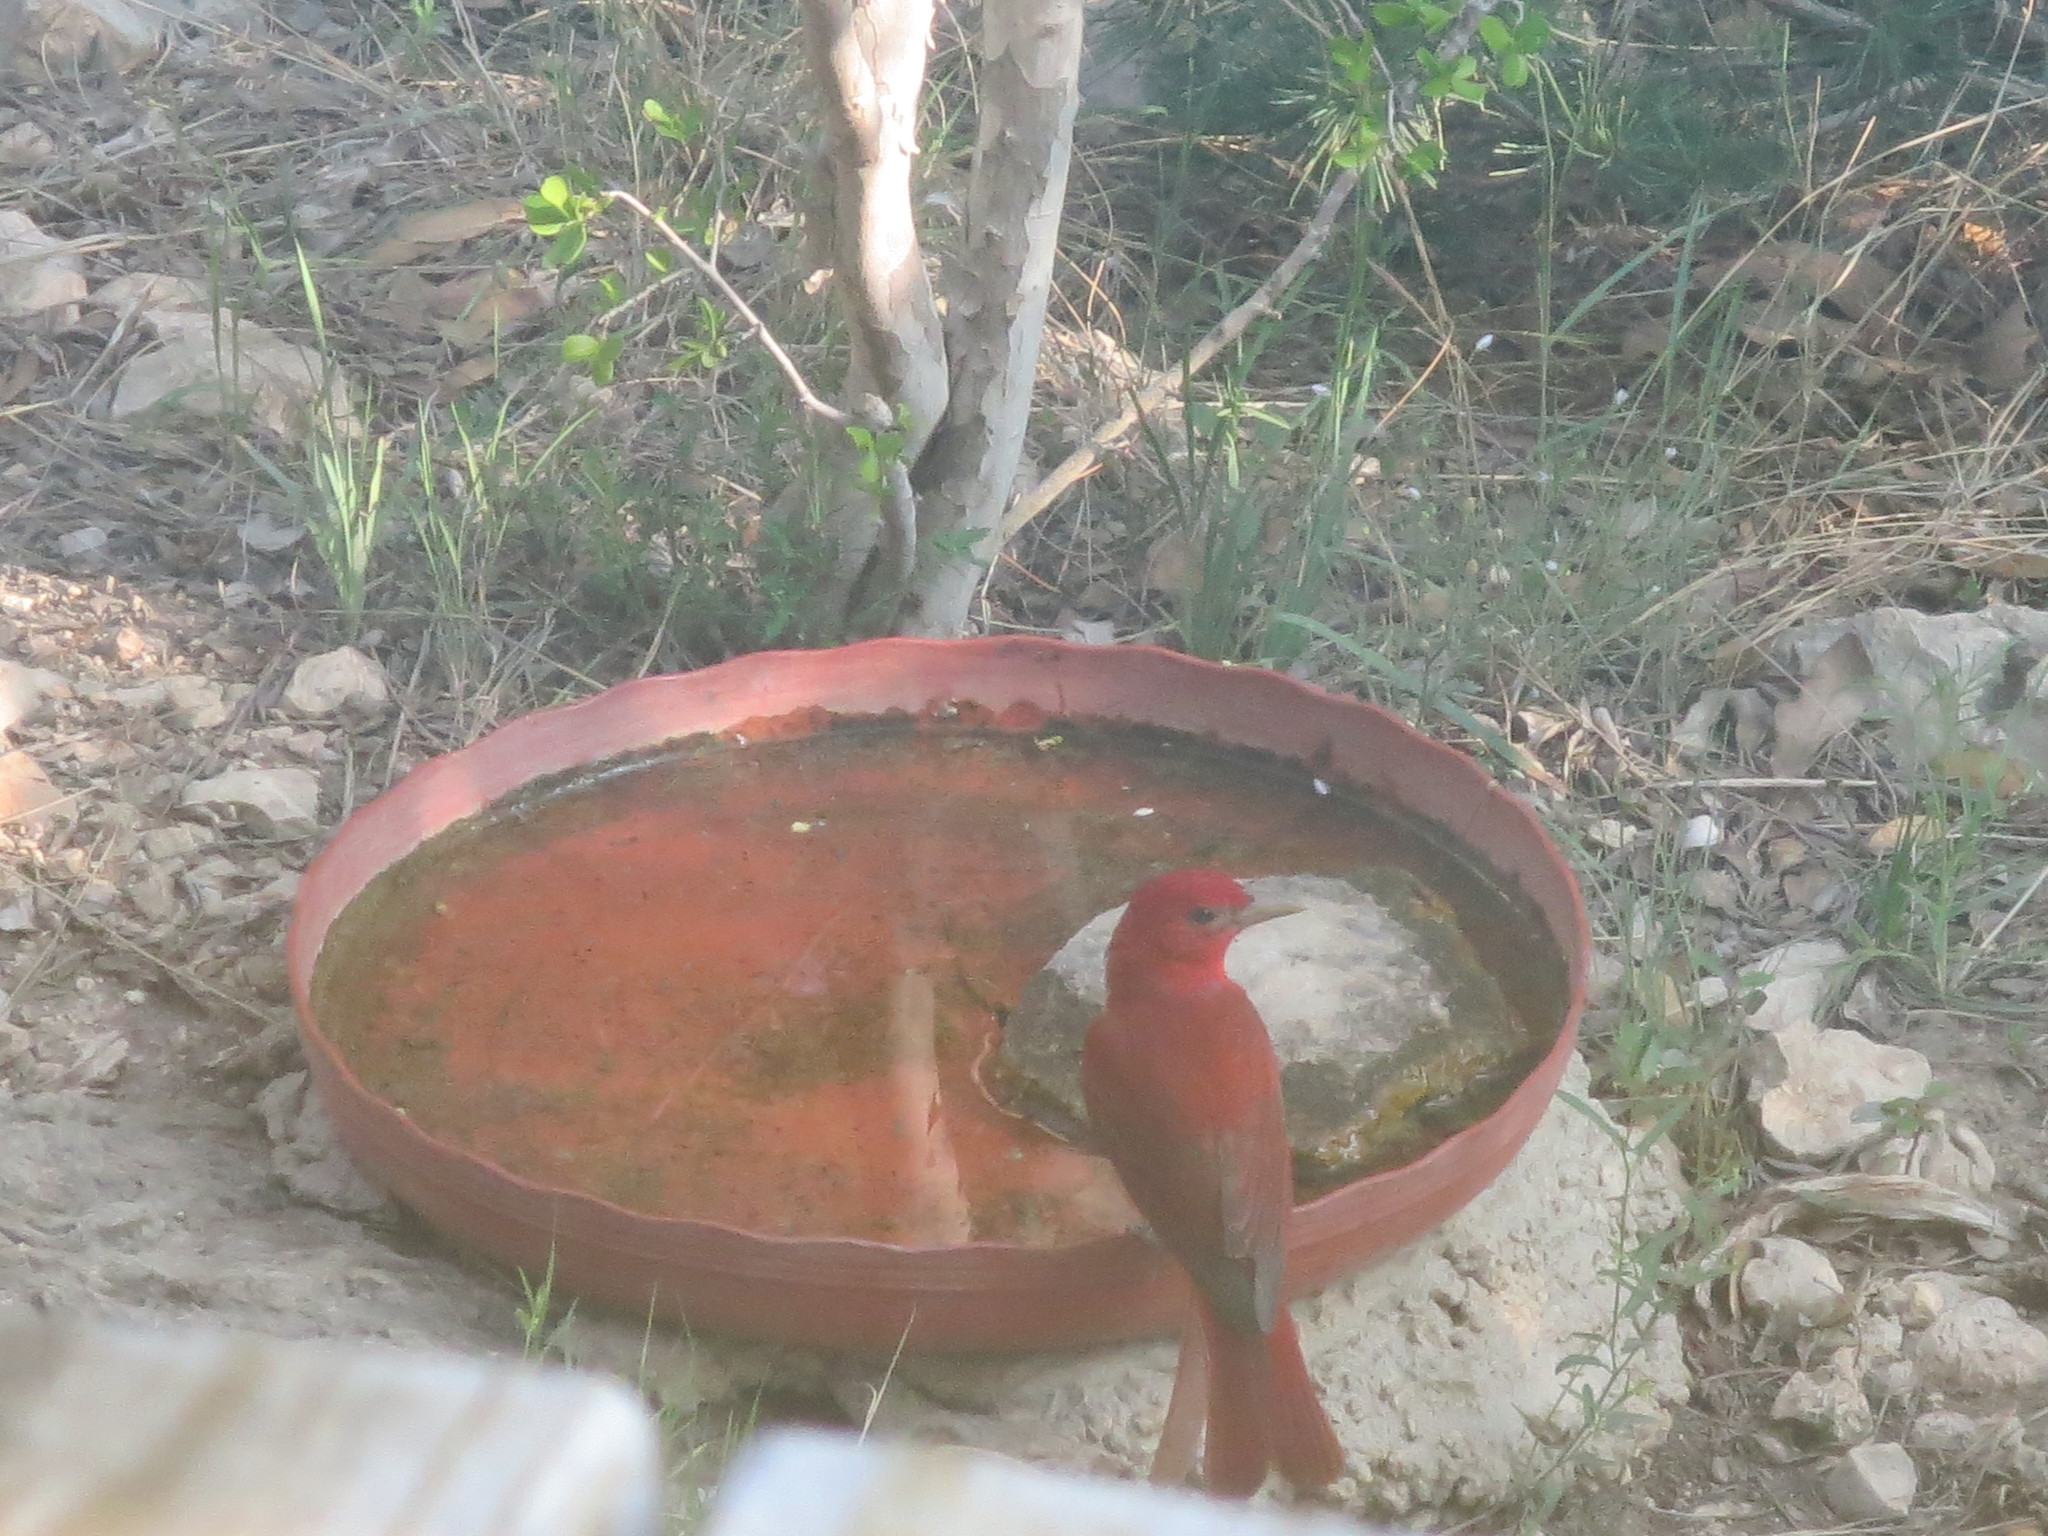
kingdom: Animalia
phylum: Chordata
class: Aves
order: Passeriformes
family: Cardinalidae
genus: Piranga
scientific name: Piranga rubra
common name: Summer tanager
